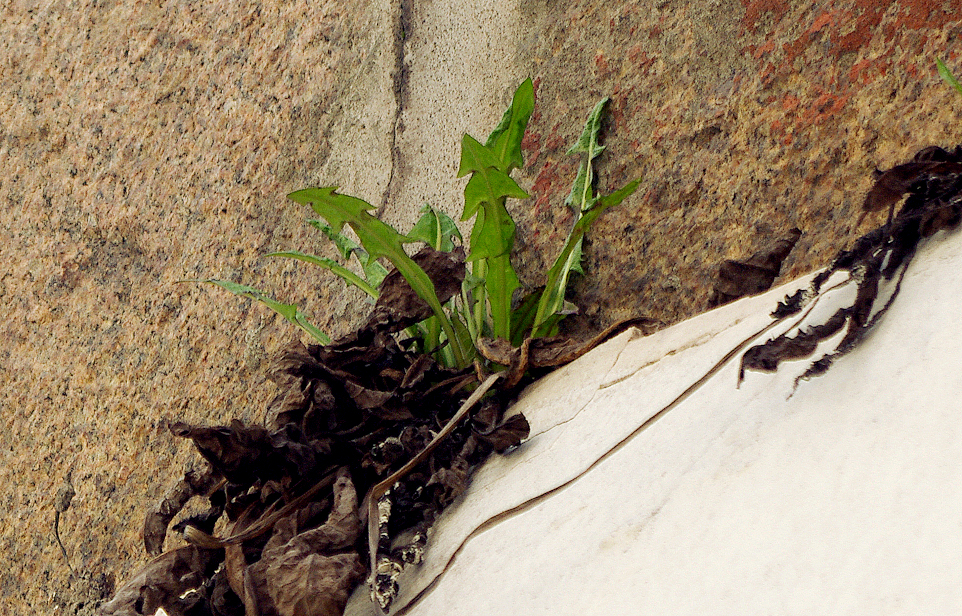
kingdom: Plantae
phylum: Tracheophyta
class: Magnoliopsida
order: Asterales
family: Asteraceae
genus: Taraxacum
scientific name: Taraxacum officinale
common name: Common dandelion
